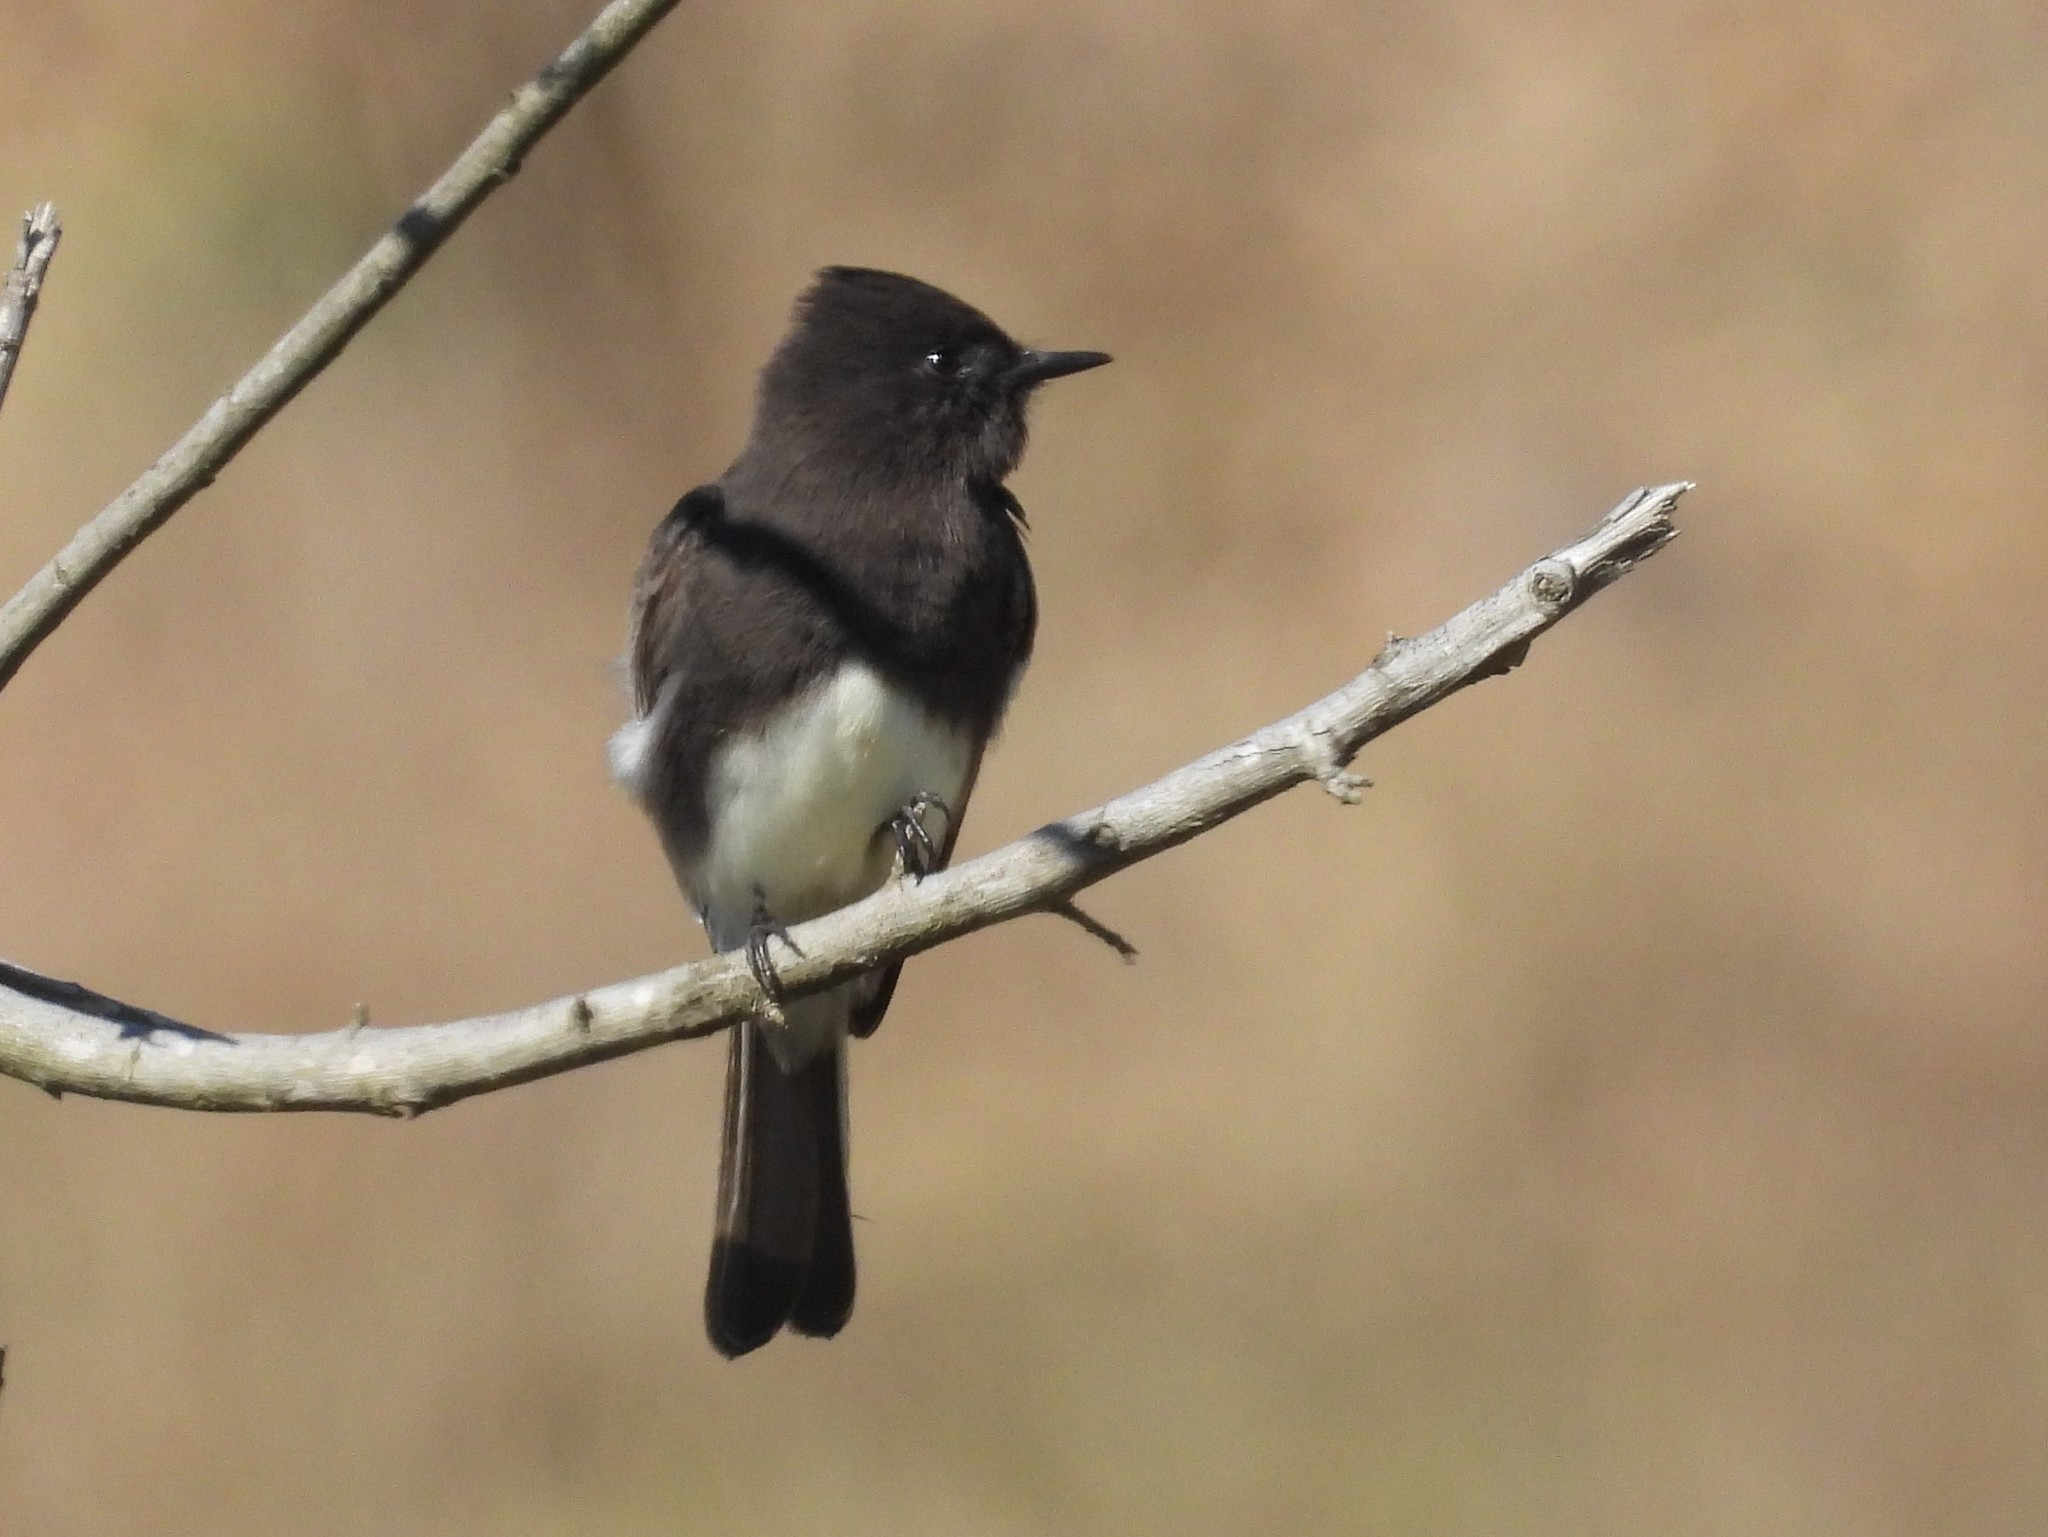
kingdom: Animalia
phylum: Chordata
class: Aves
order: Passeriformes
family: Tyrannidae
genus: Sayornis
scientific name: Sayornis nigricans
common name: Black phoebe
